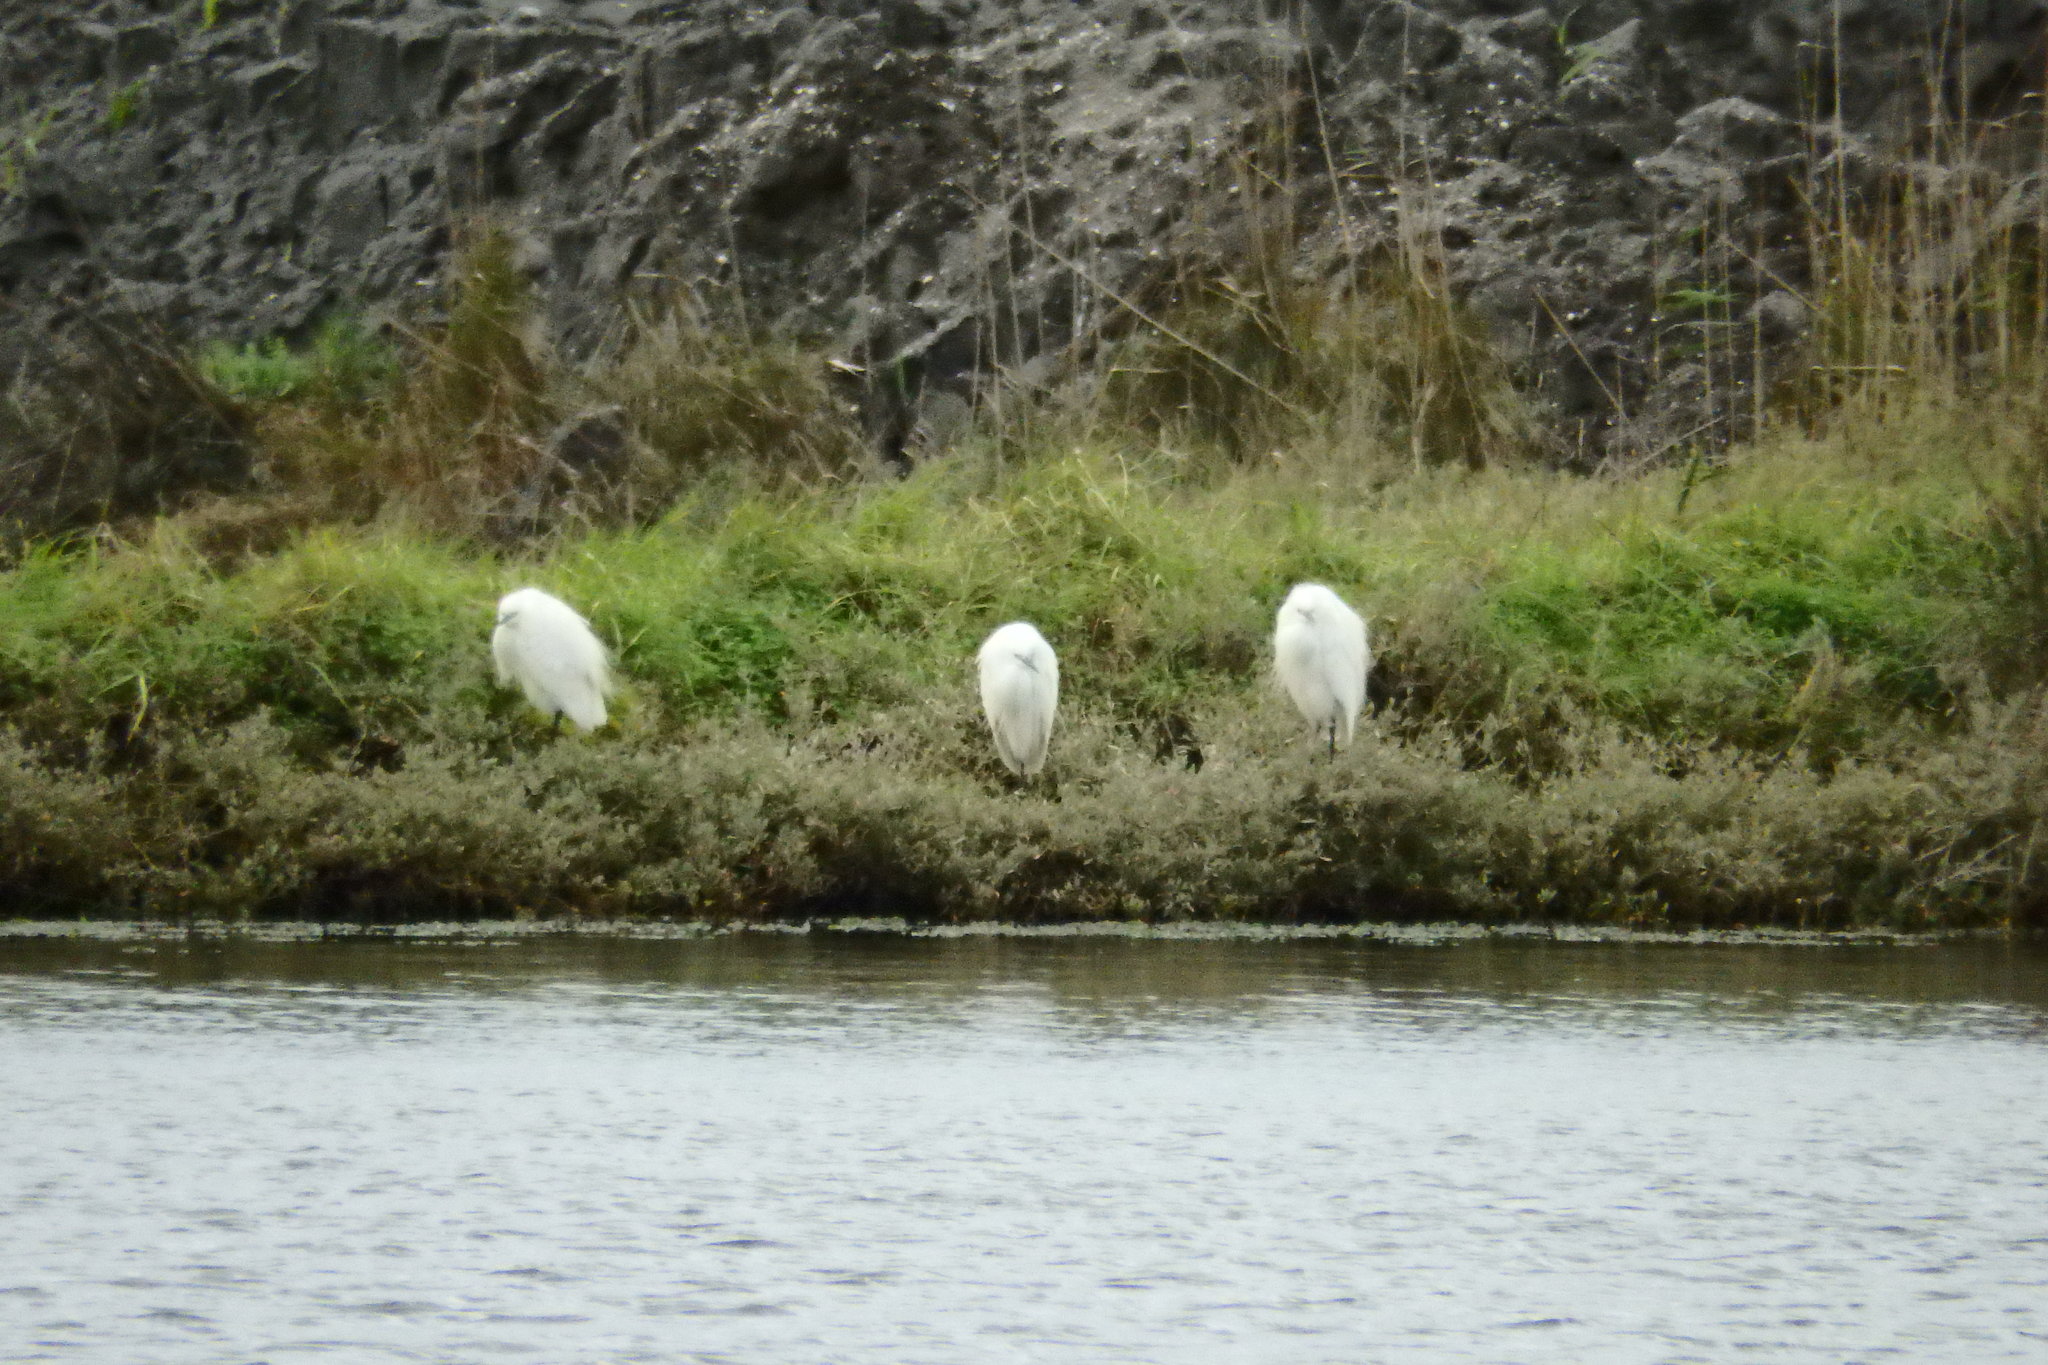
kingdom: Animalia
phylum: Chordata
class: Aves
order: Pelecaniformes
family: Ardeidae
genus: Egretta
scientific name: Egretta garzetta
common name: Little egret
